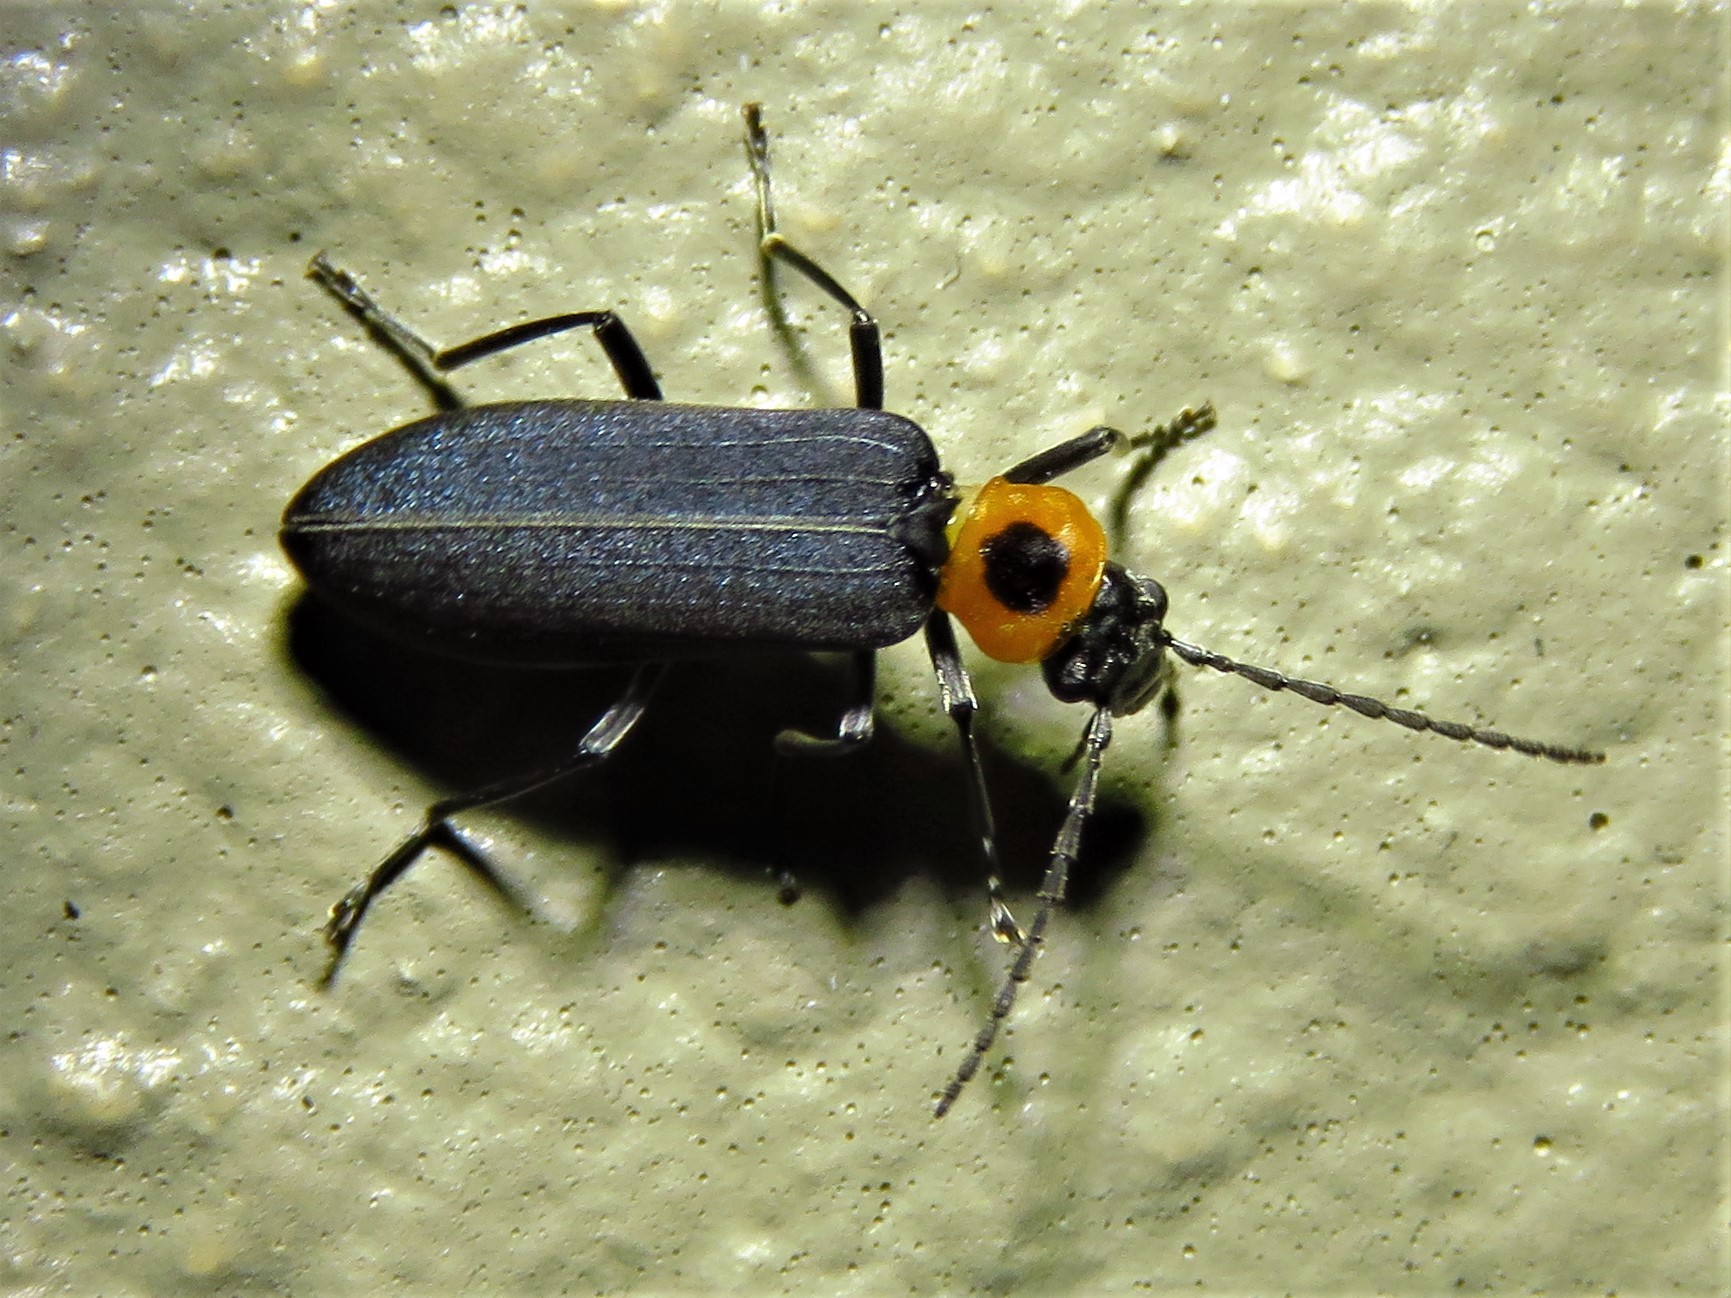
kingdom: Animalia
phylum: Arthropoda
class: Insecta
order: Coleoptera
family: Oedemeridae
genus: Ischnomera
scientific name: Ischnomera
